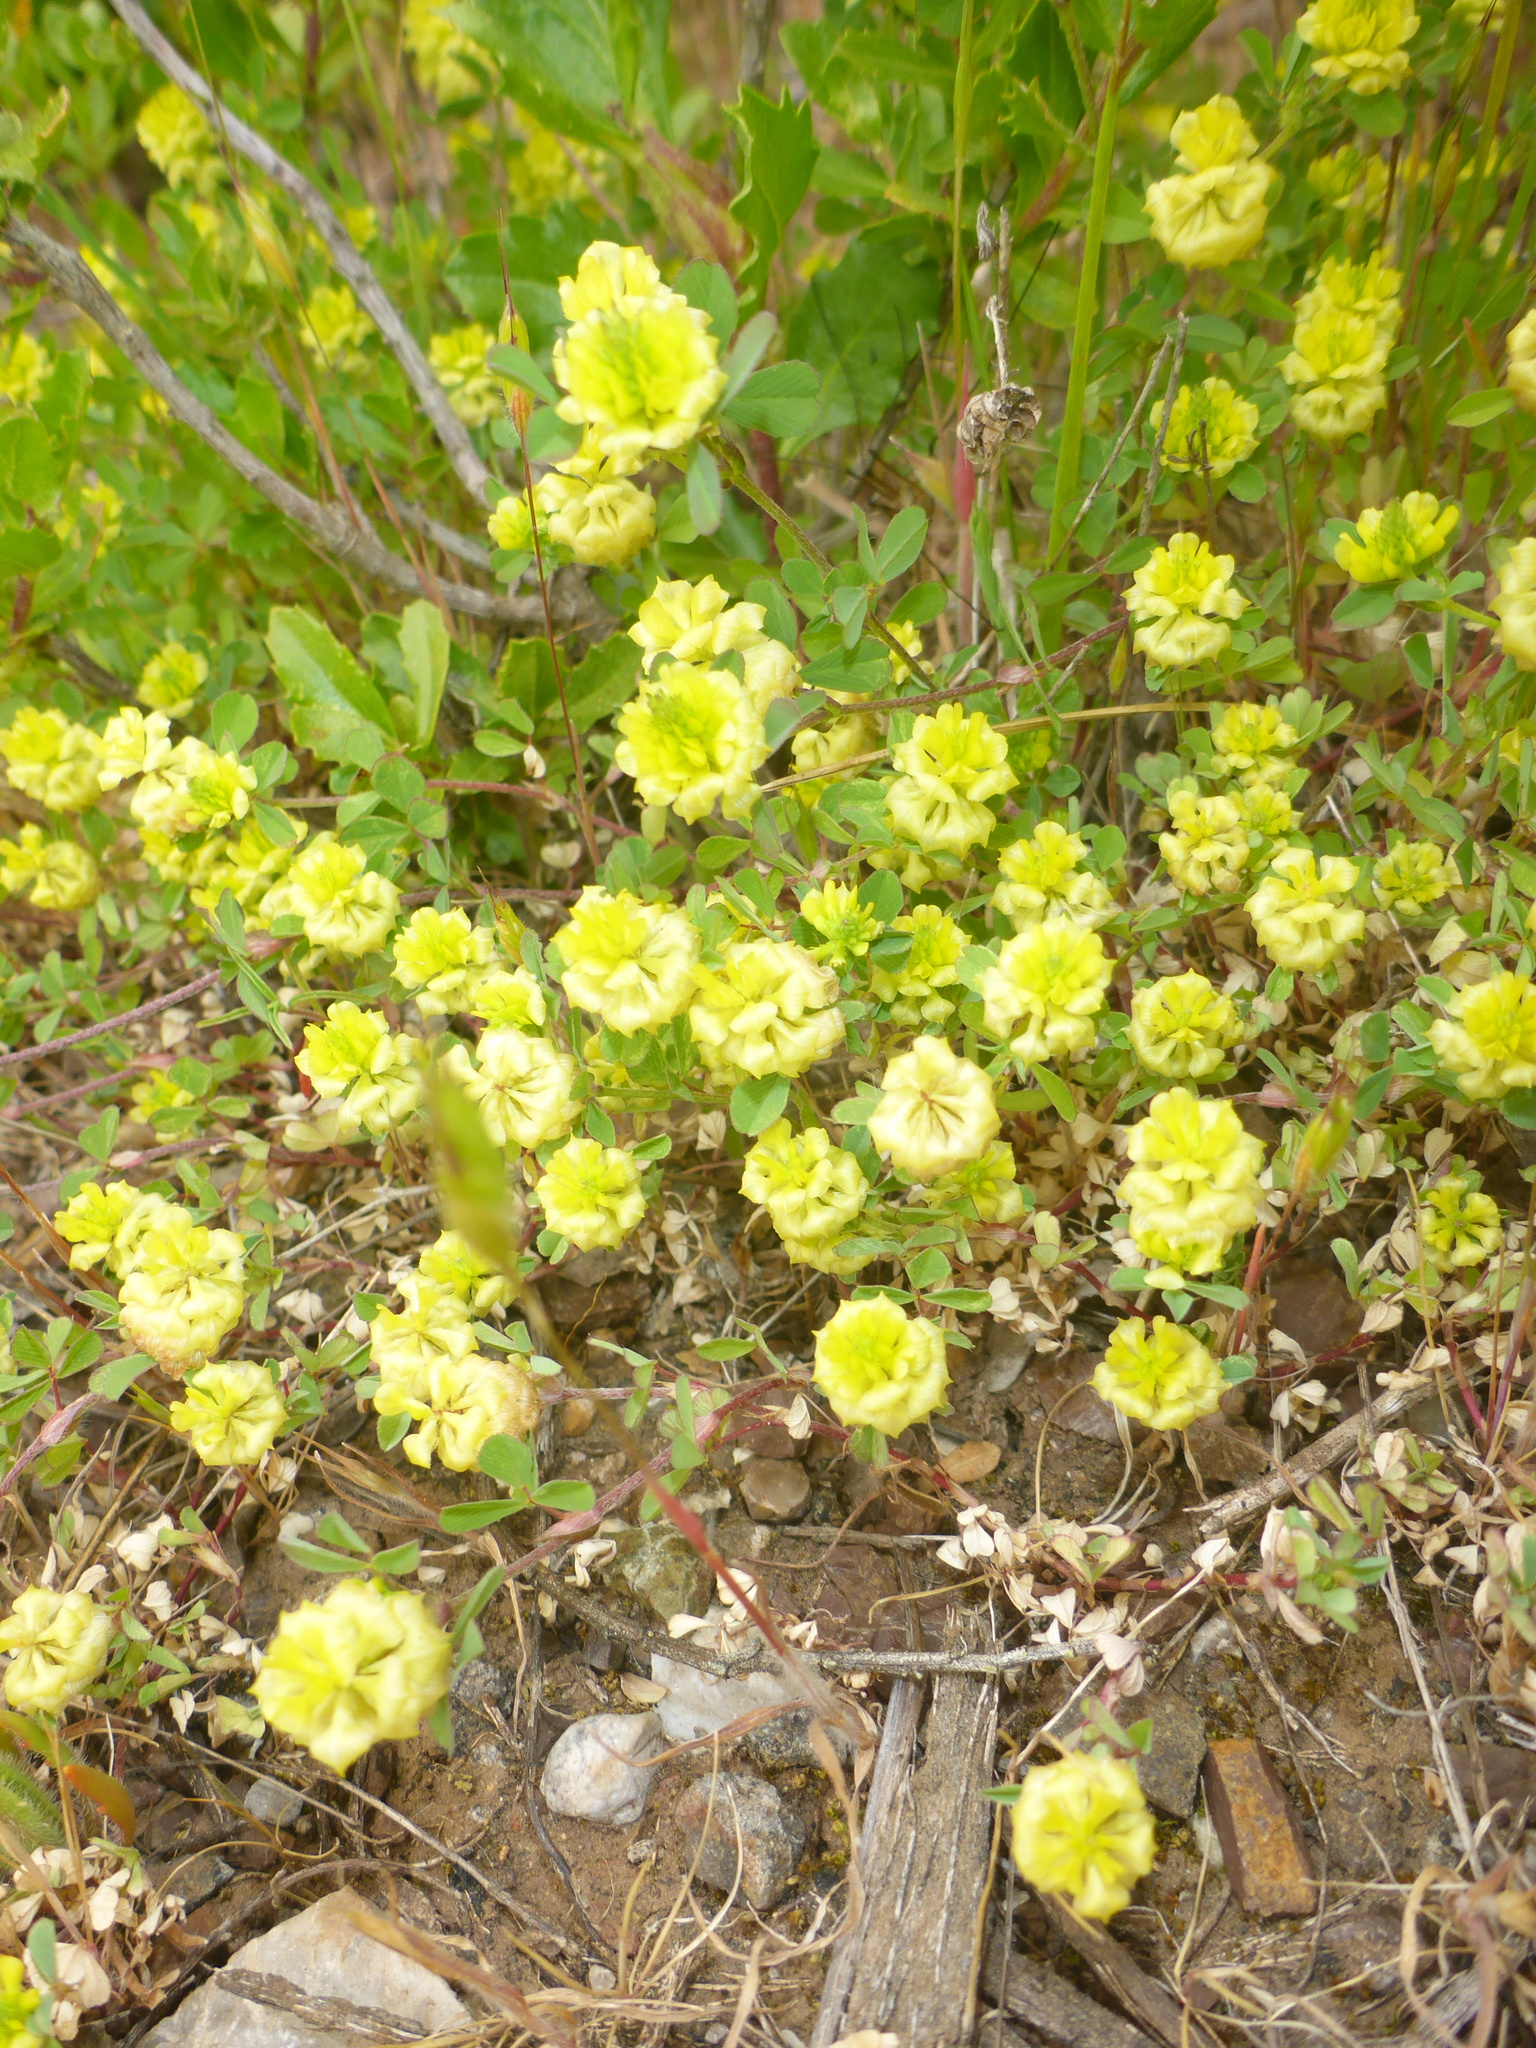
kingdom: Plantae
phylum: Tracheophyta
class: Magnoliopsida
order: Fabales
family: Fabaceae
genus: Trifolium
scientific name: Trifolium campestre
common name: Field clover
